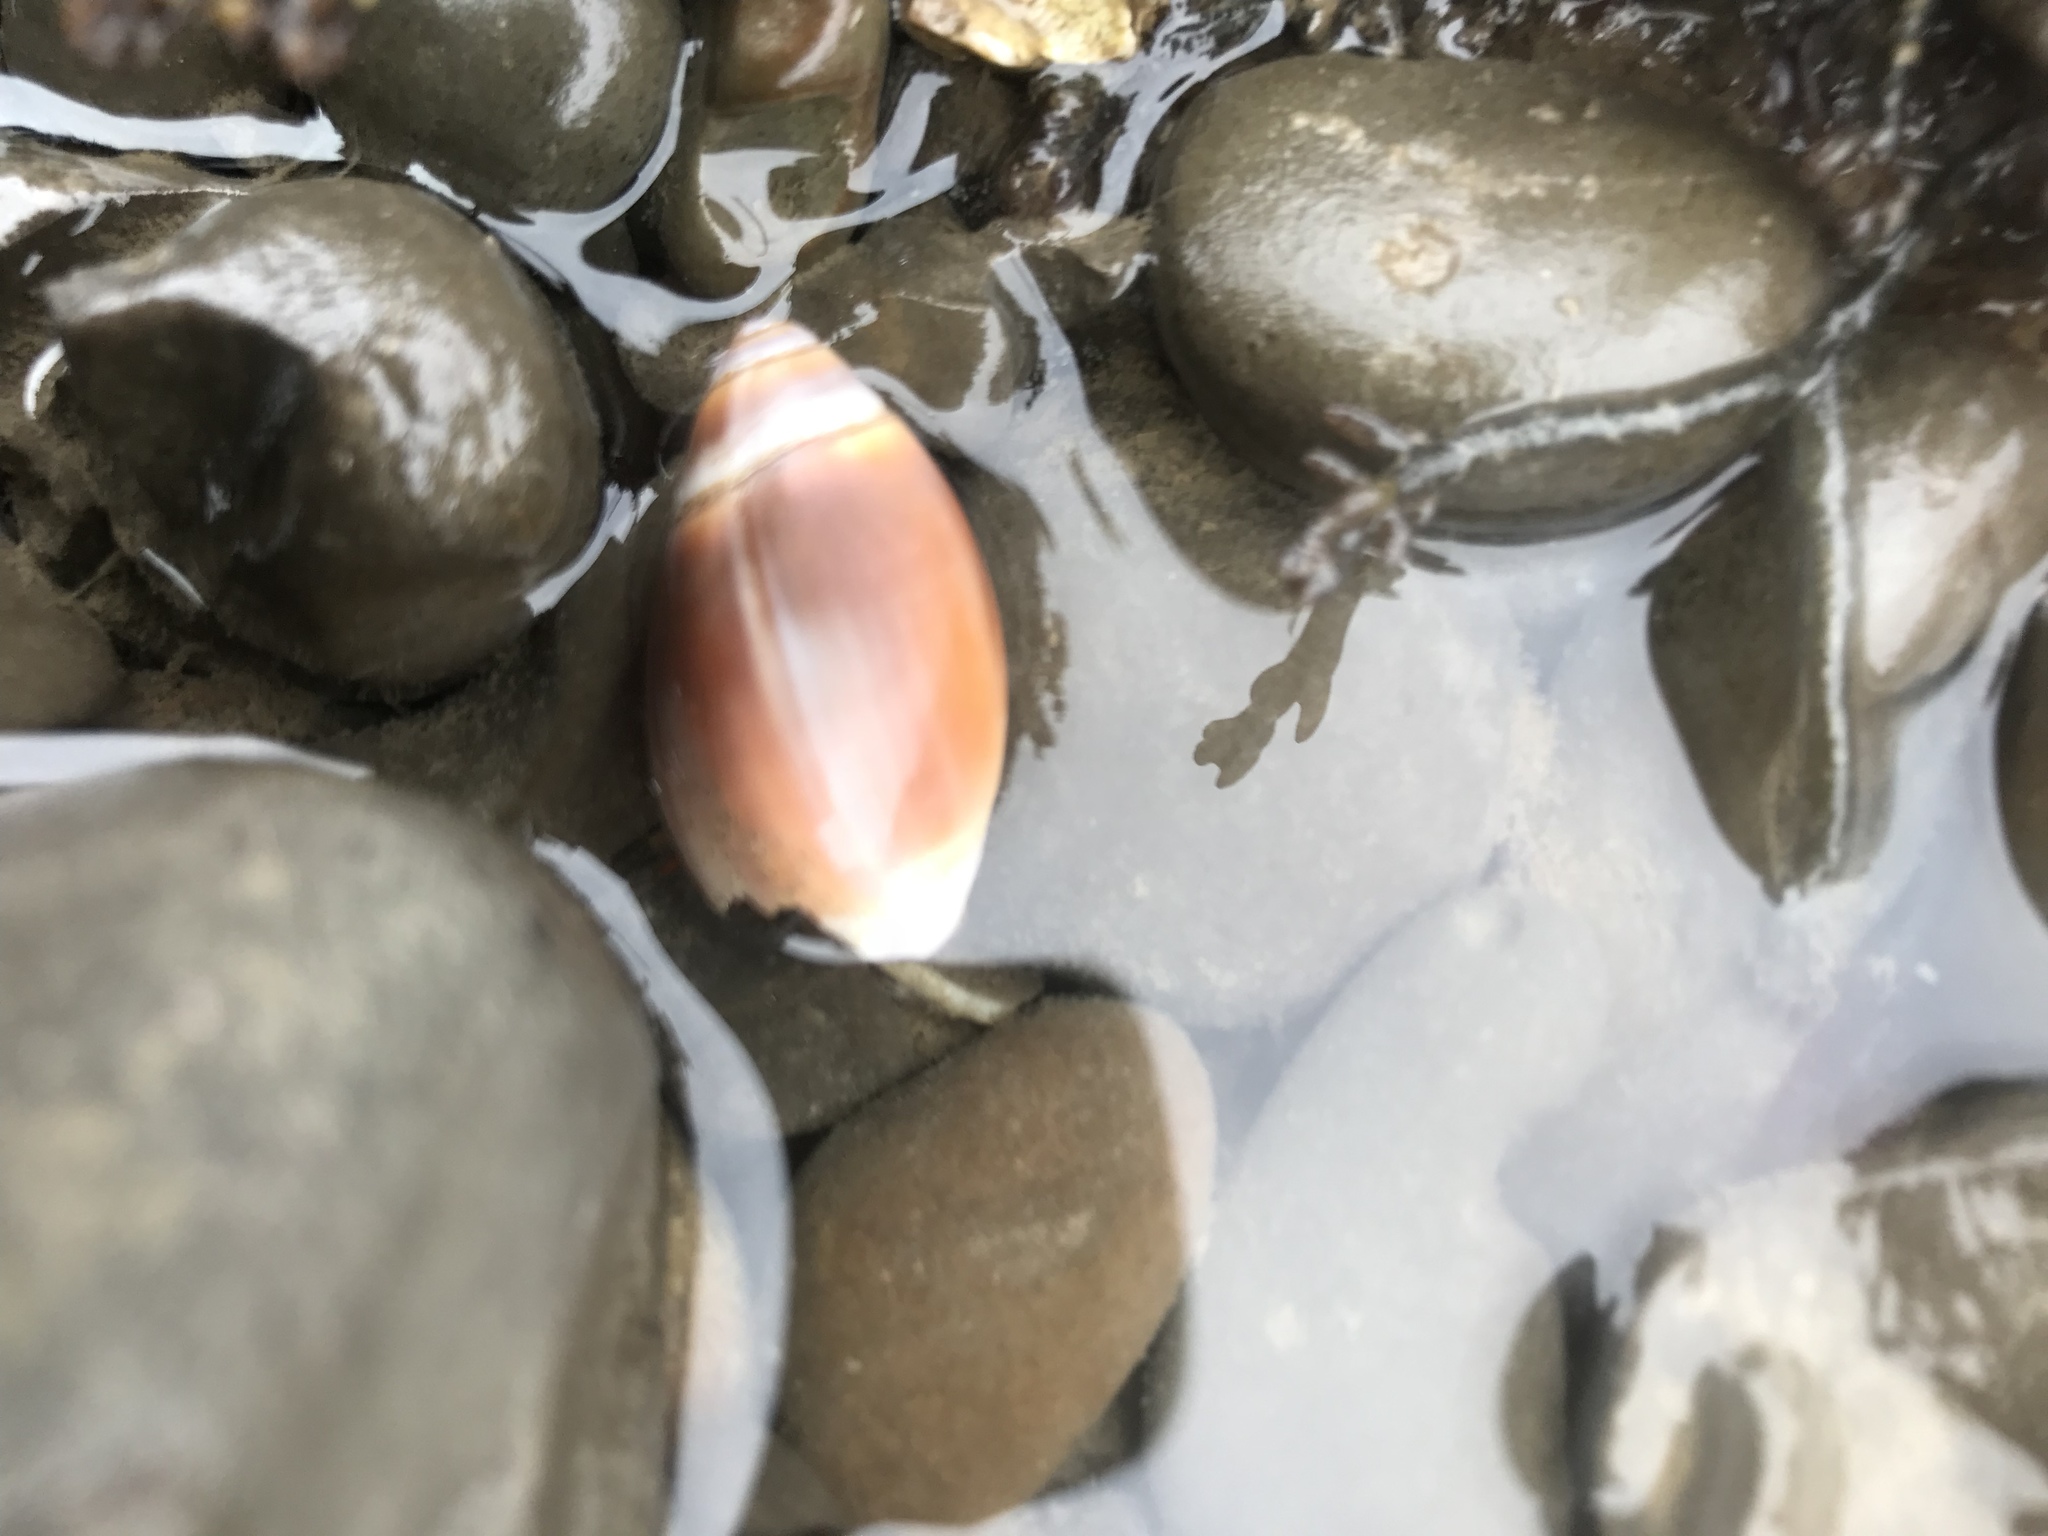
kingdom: Animalia
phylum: Mollusca
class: Gastropoda
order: Neogastropoda
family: Olividae
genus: Callianax
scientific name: Callianax biplicata
